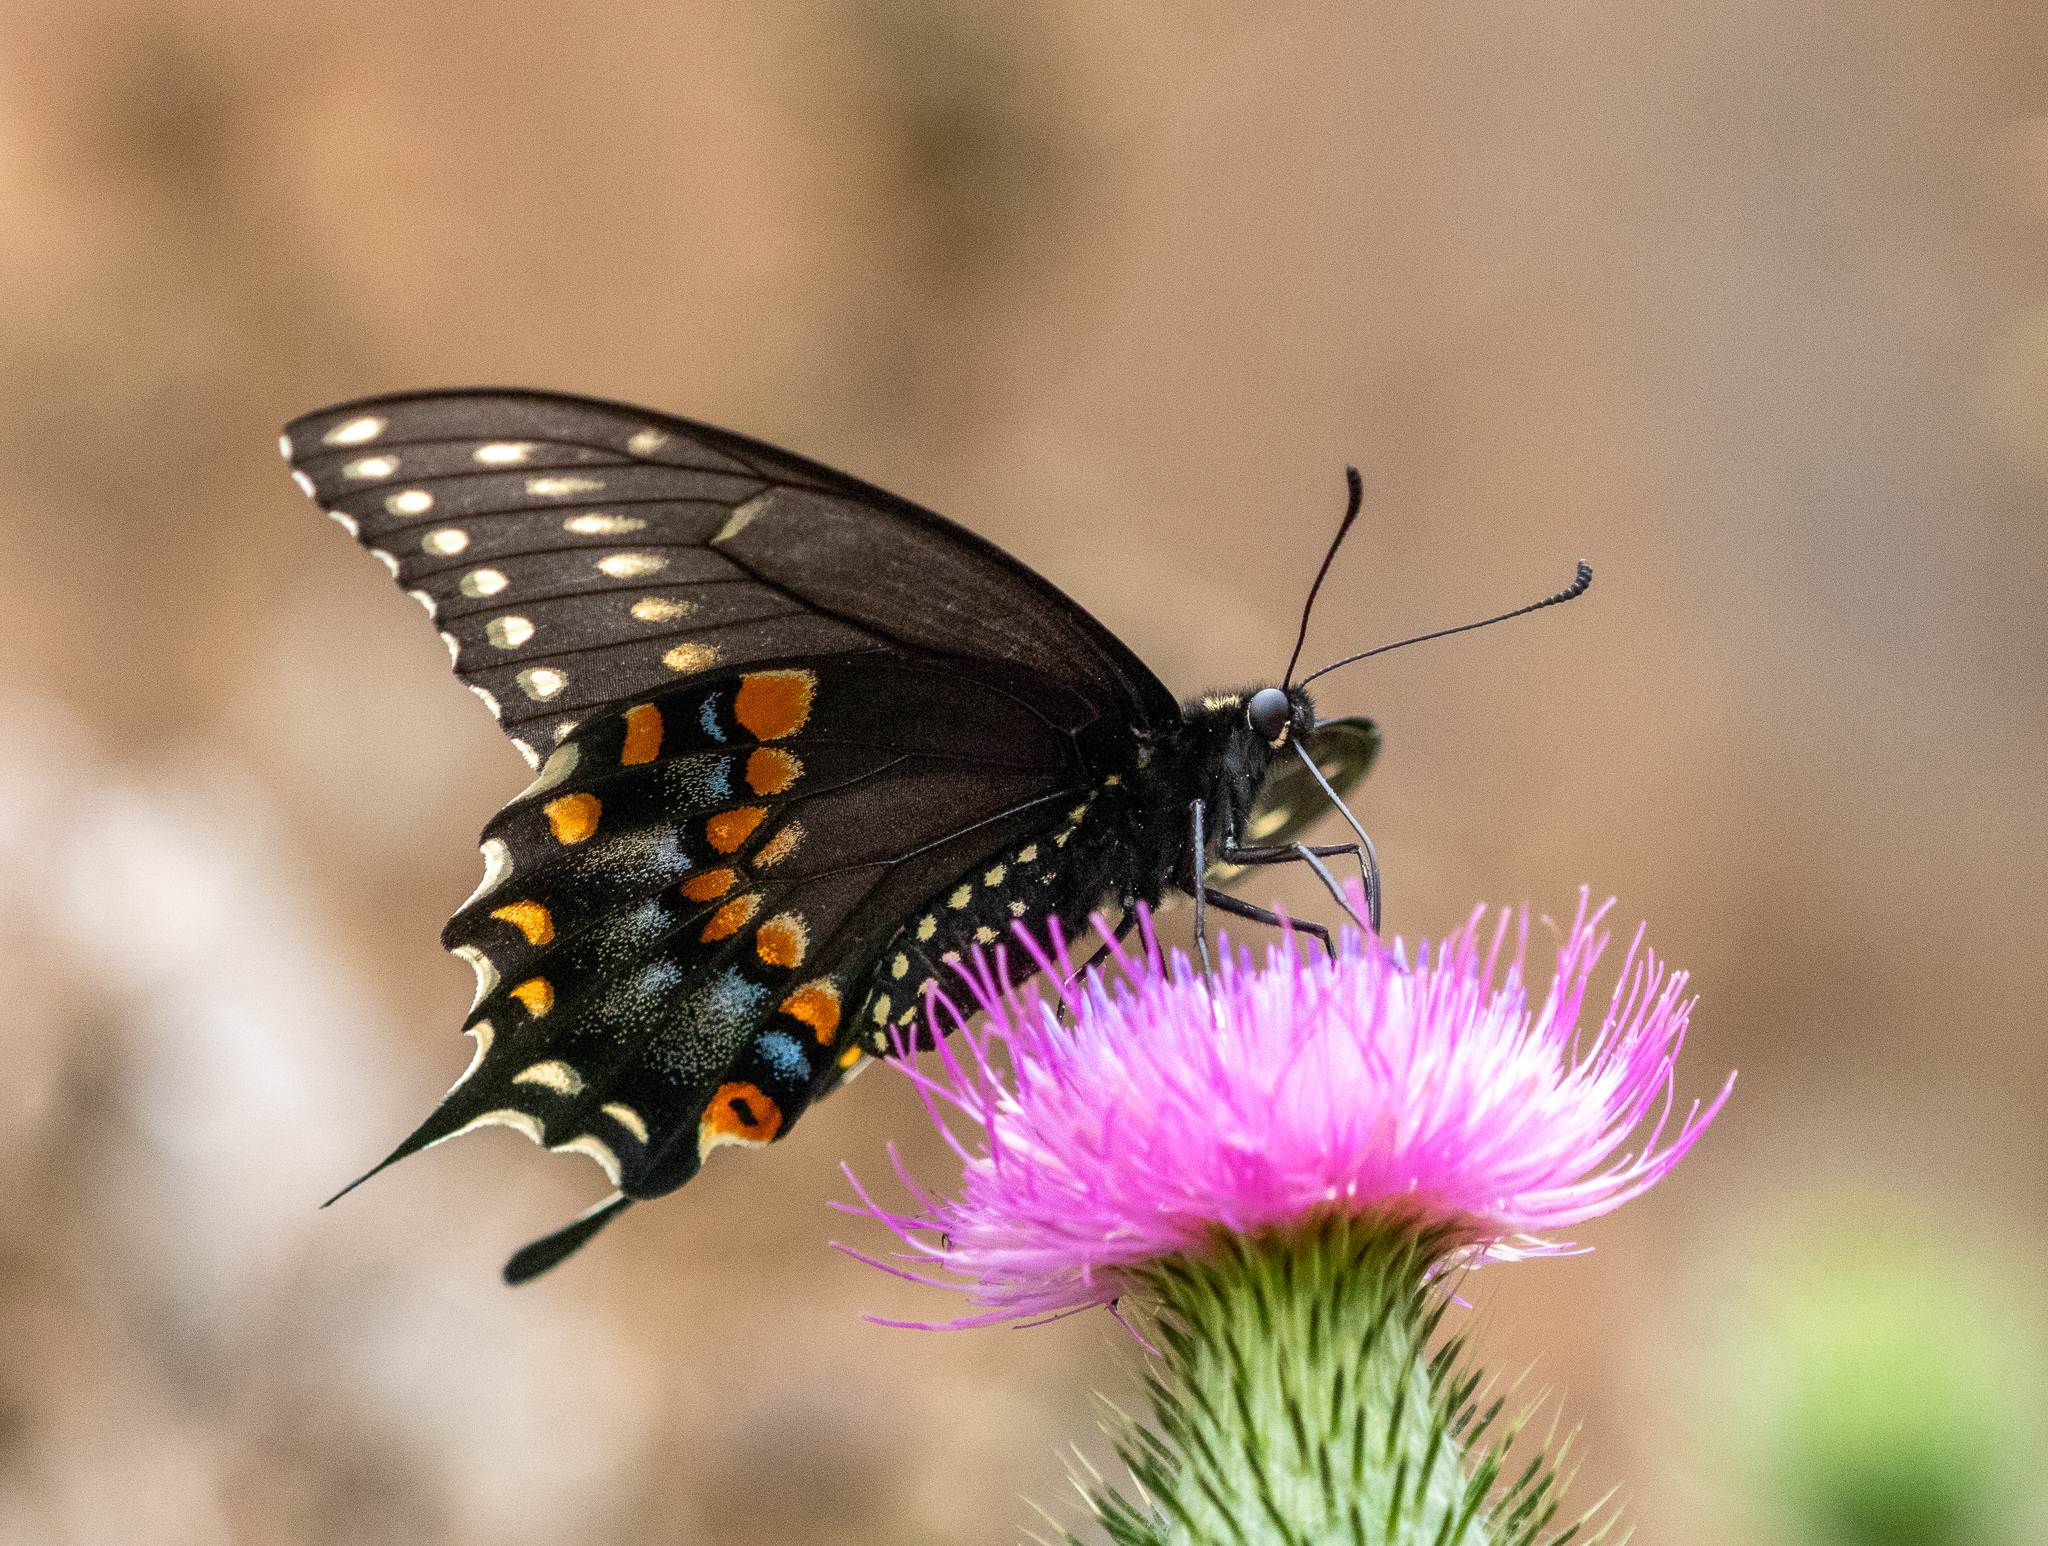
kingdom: Animalia
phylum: Arthropoda
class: Insecta
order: Lepidoptera
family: Papilionidae
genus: Papilio
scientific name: Papilio polyxenes
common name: Black swallowtail
